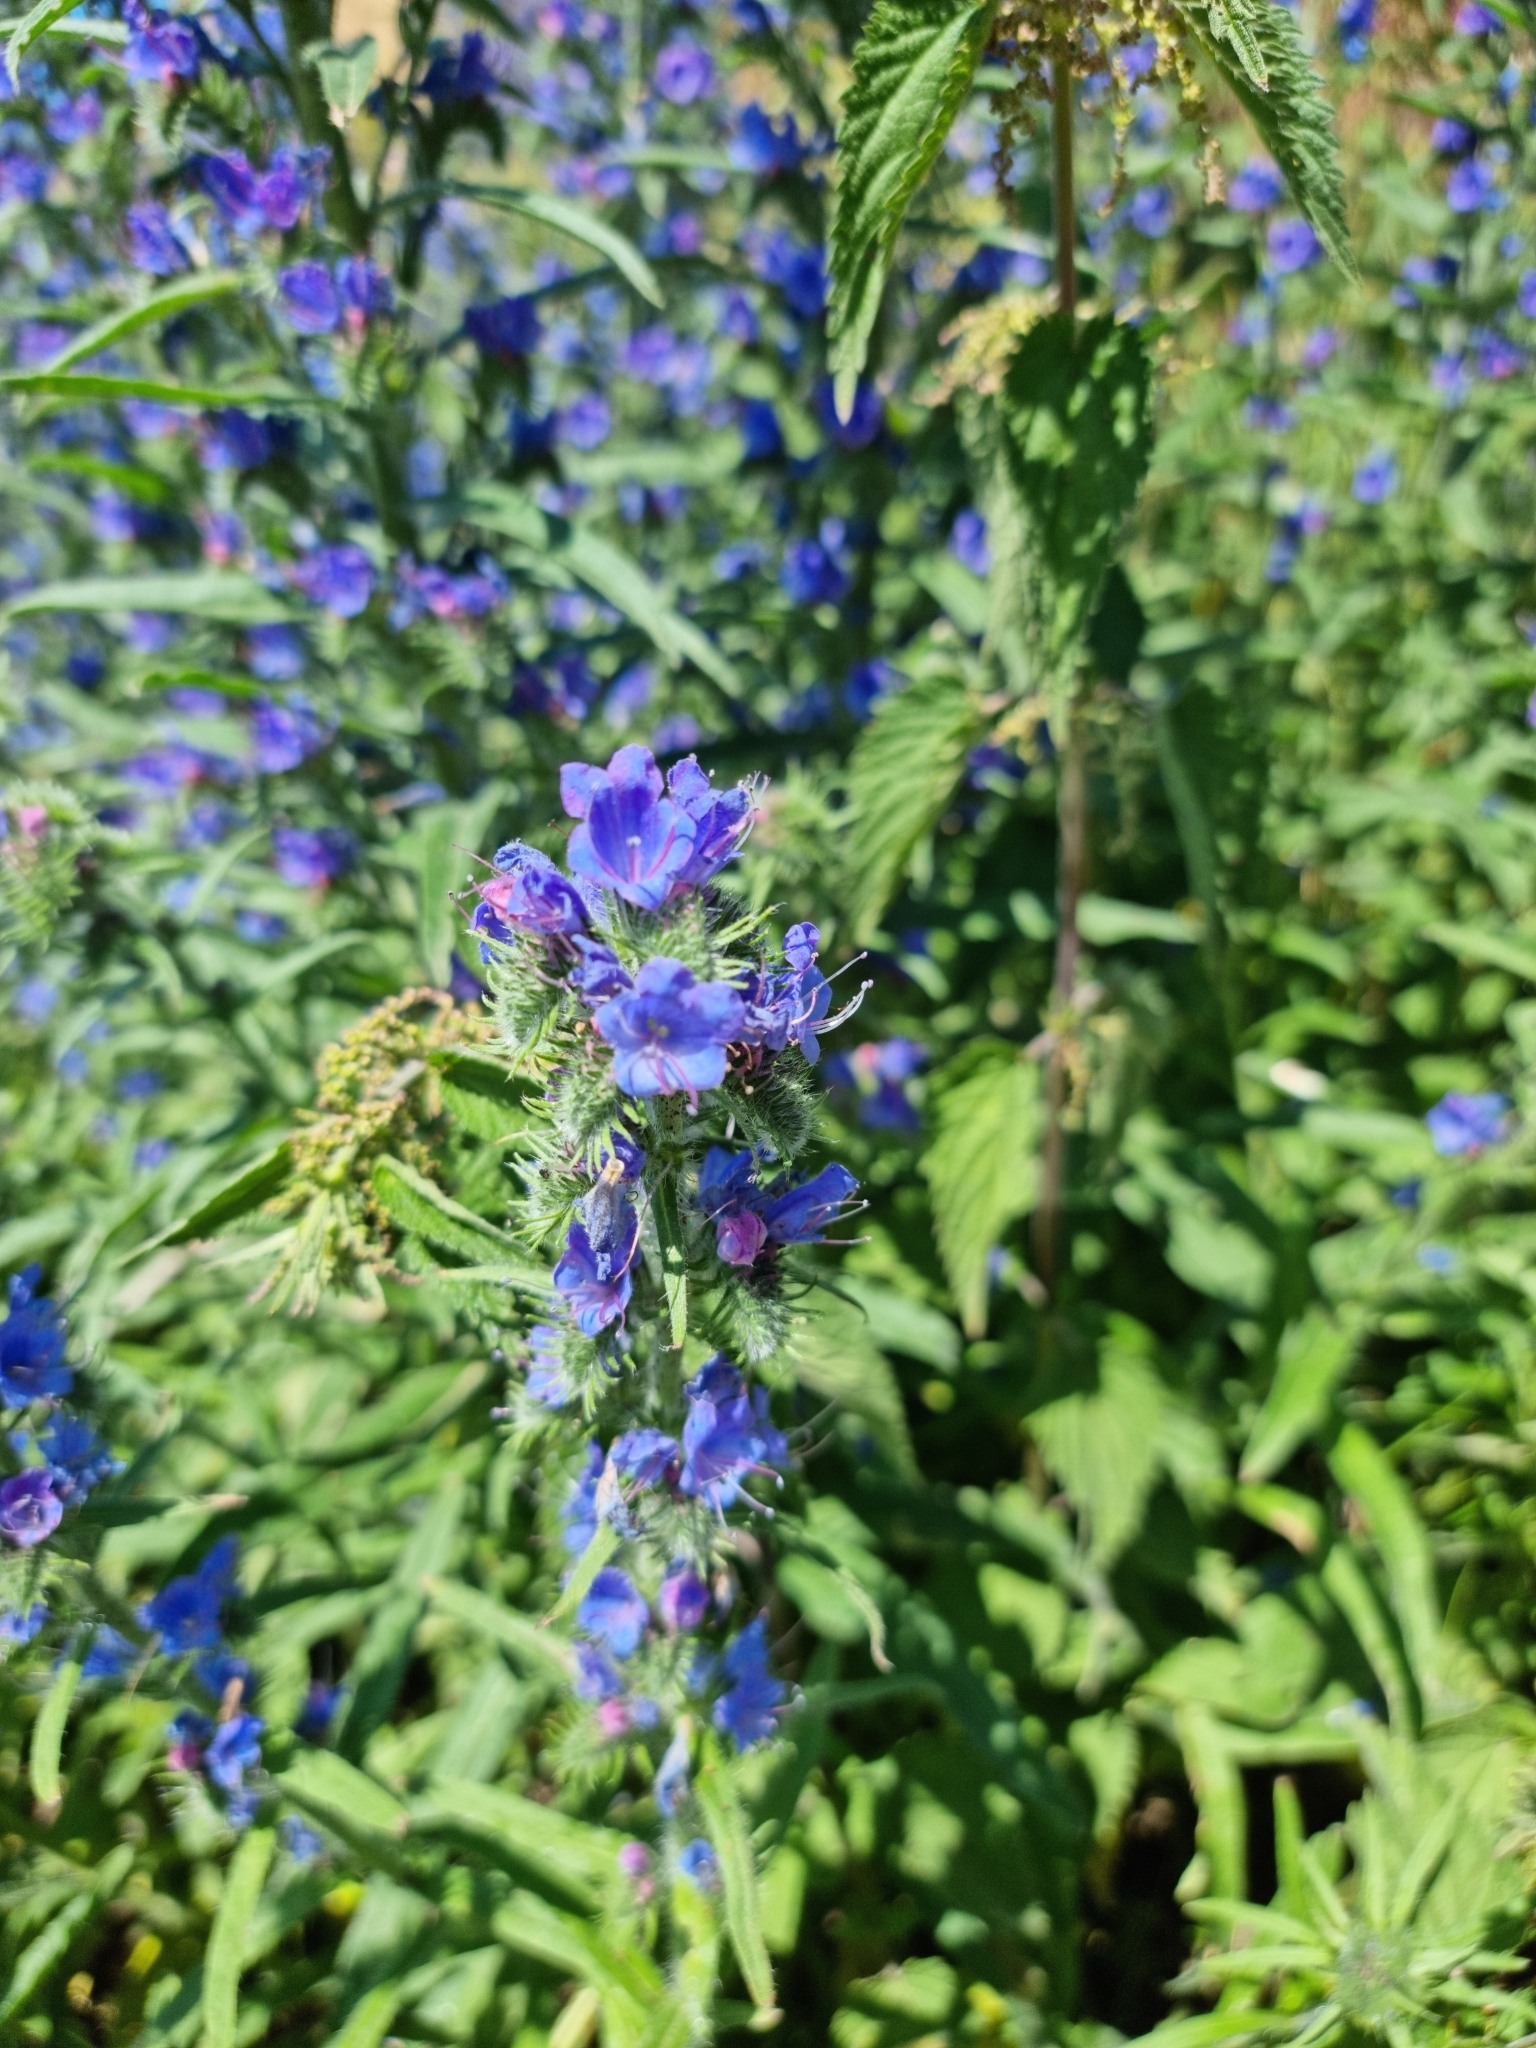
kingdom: Plantae
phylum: Tracheophyta
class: Magnoliopsida
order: Boraginales
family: Boraginaceae
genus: Echium
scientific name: Echium vulgare
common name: Common viper's bugloss
